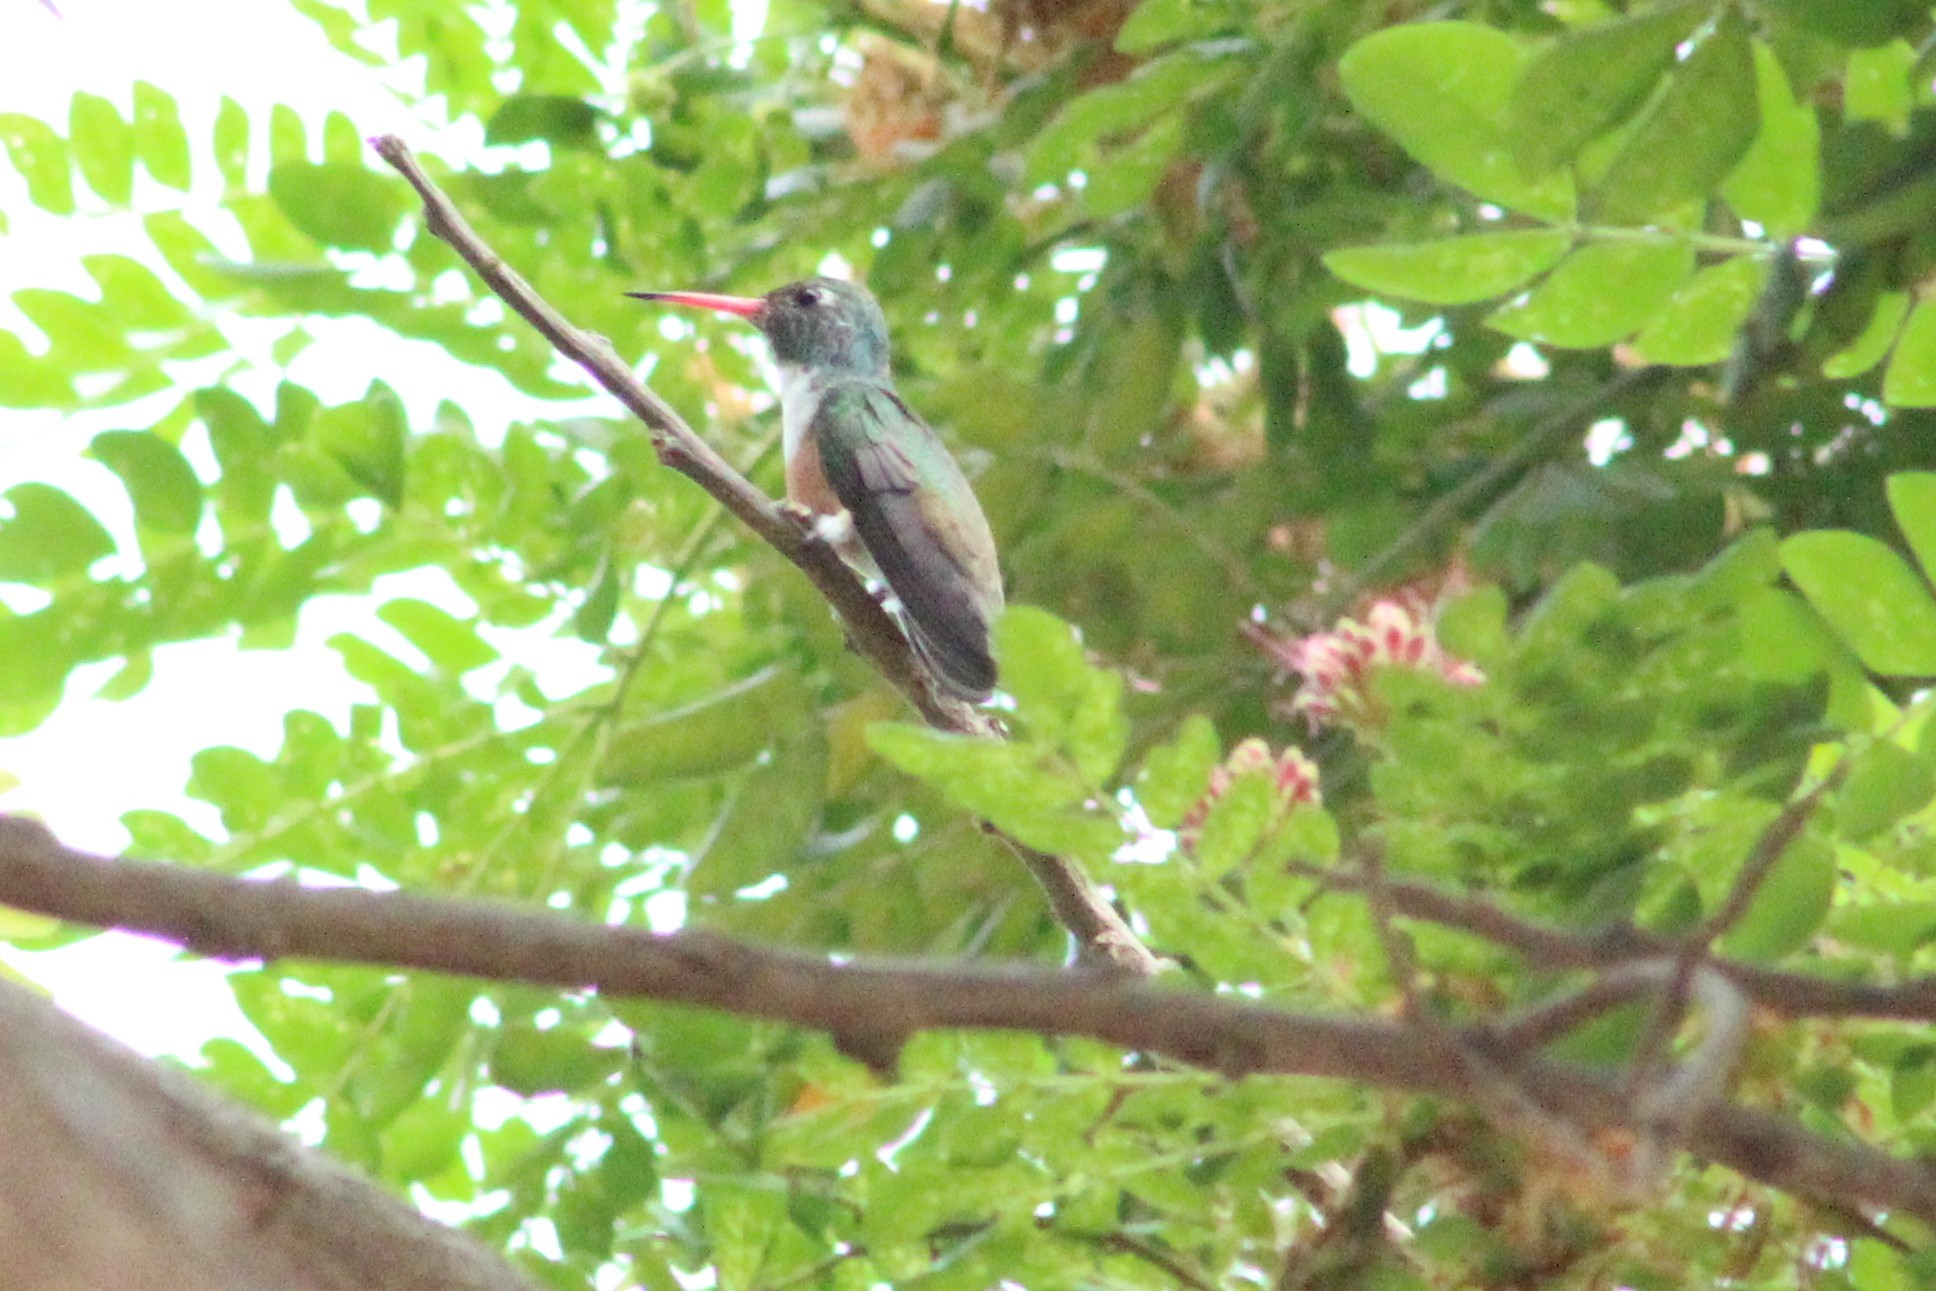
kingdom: Animalia
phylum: Chordata
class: Aves
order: Apodiformes
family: Trochilidae
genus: Amazilis
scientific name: Amazilis amazilia
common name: Amazilia hummingbird
